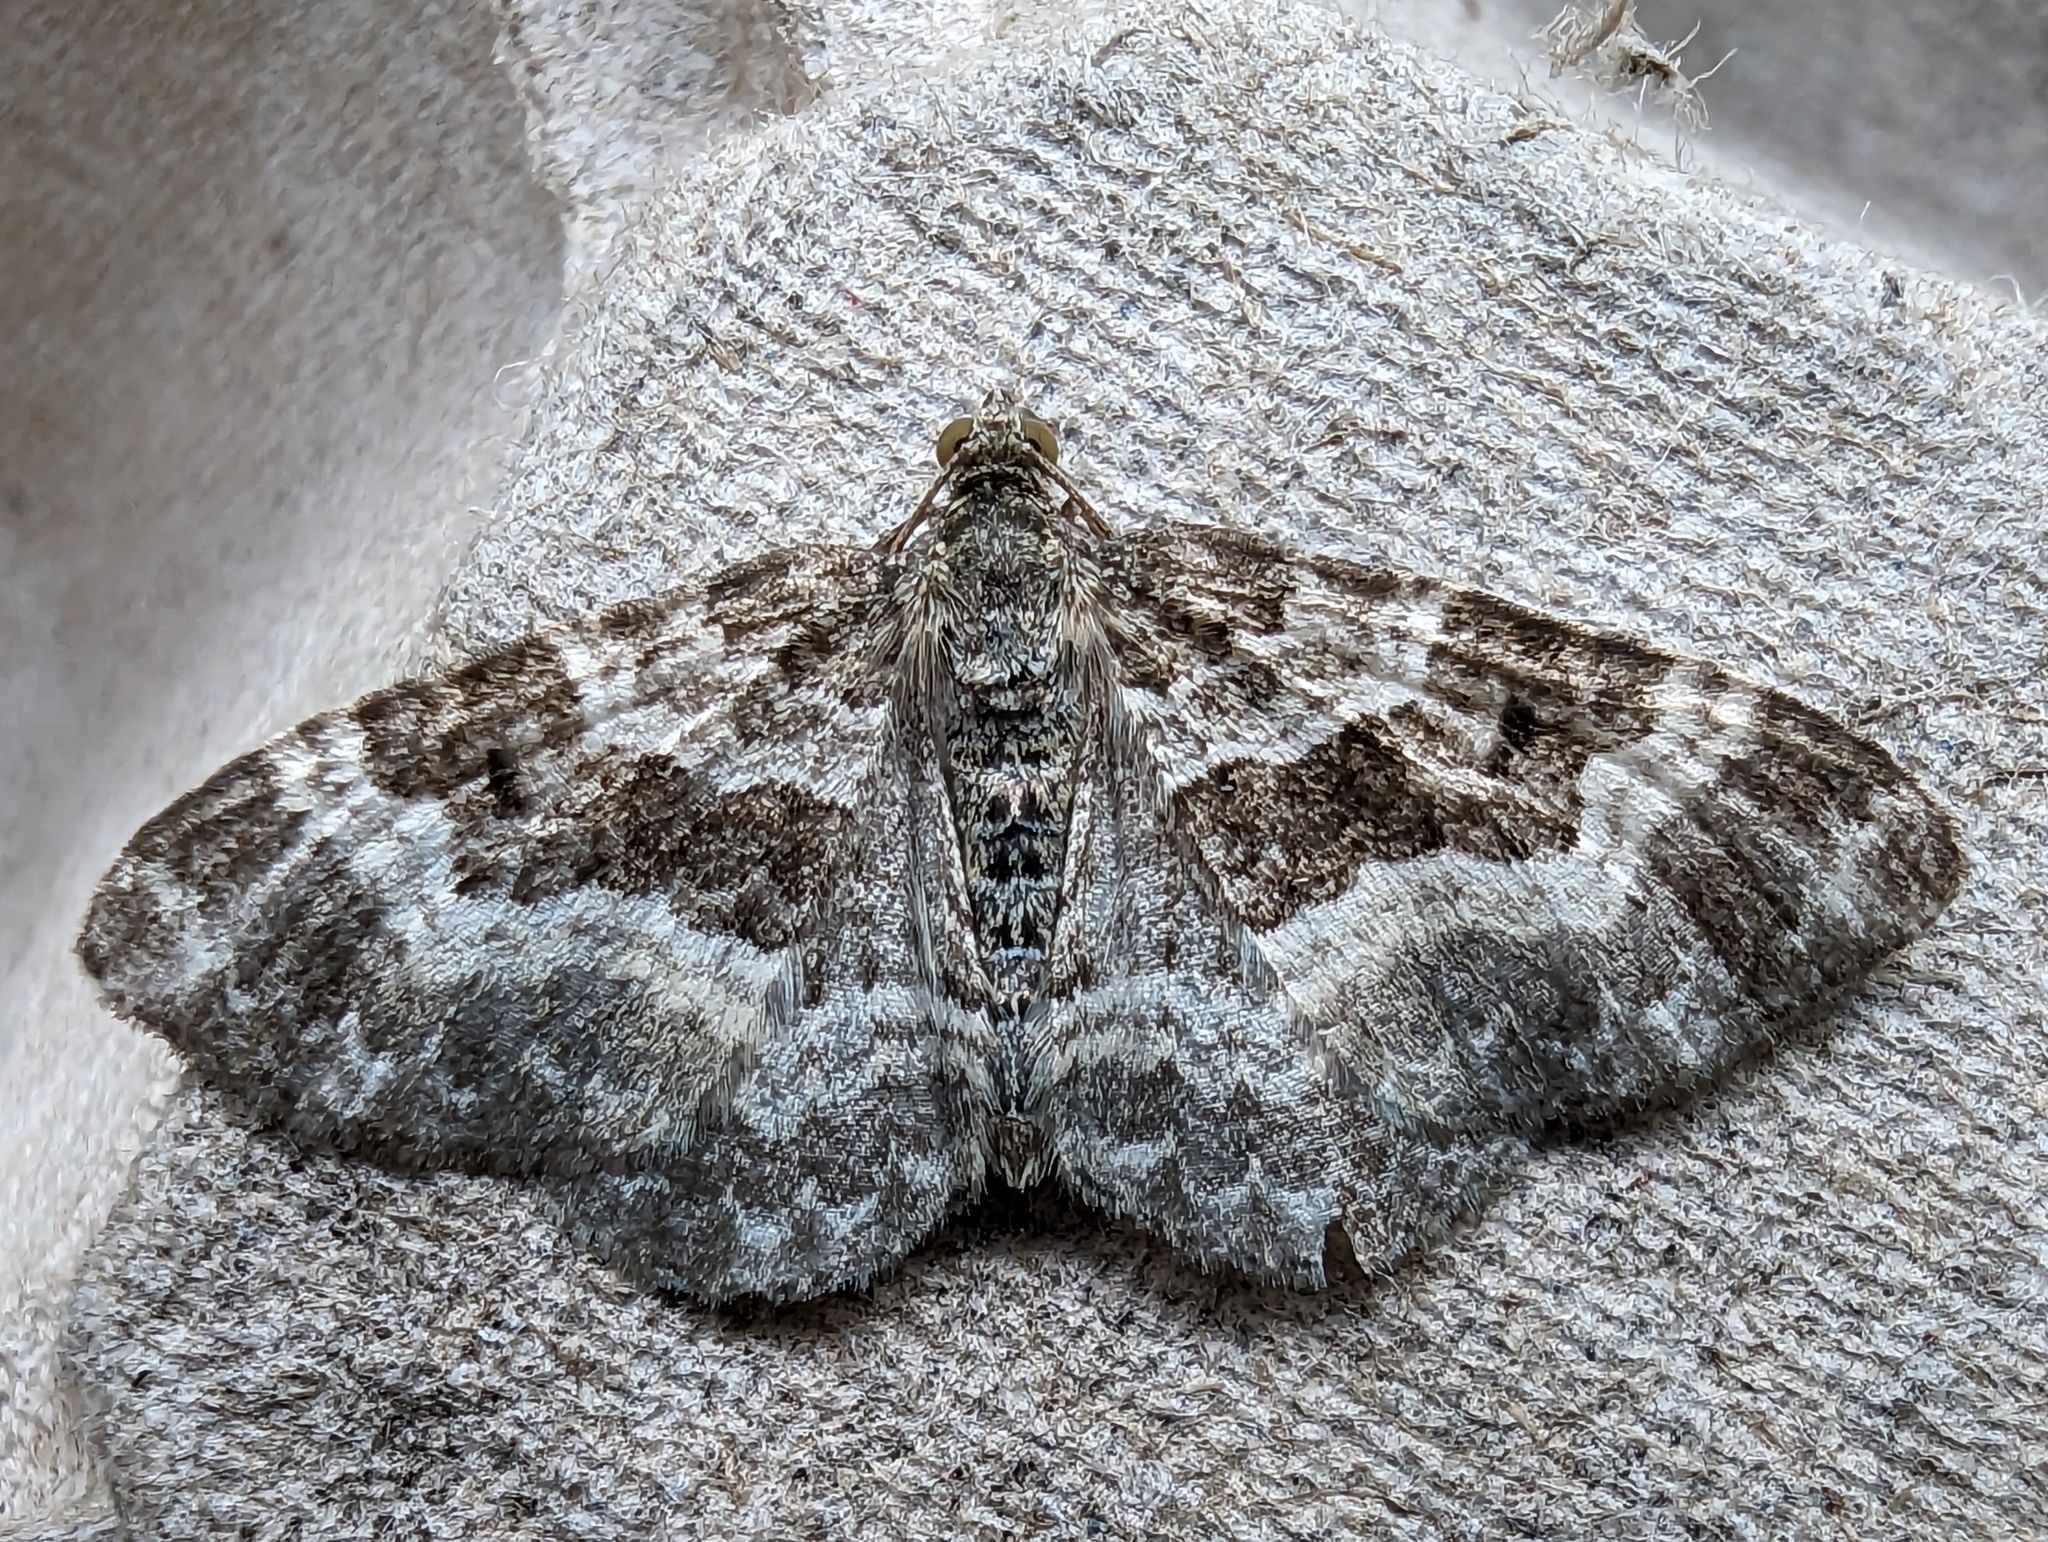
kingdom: Animalia
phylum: Arthropoda
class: Insecta
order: Lepidoptera
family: Geometridae
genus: Epirrhoe
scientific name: Epirrhoe alternata
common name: Common carpet
